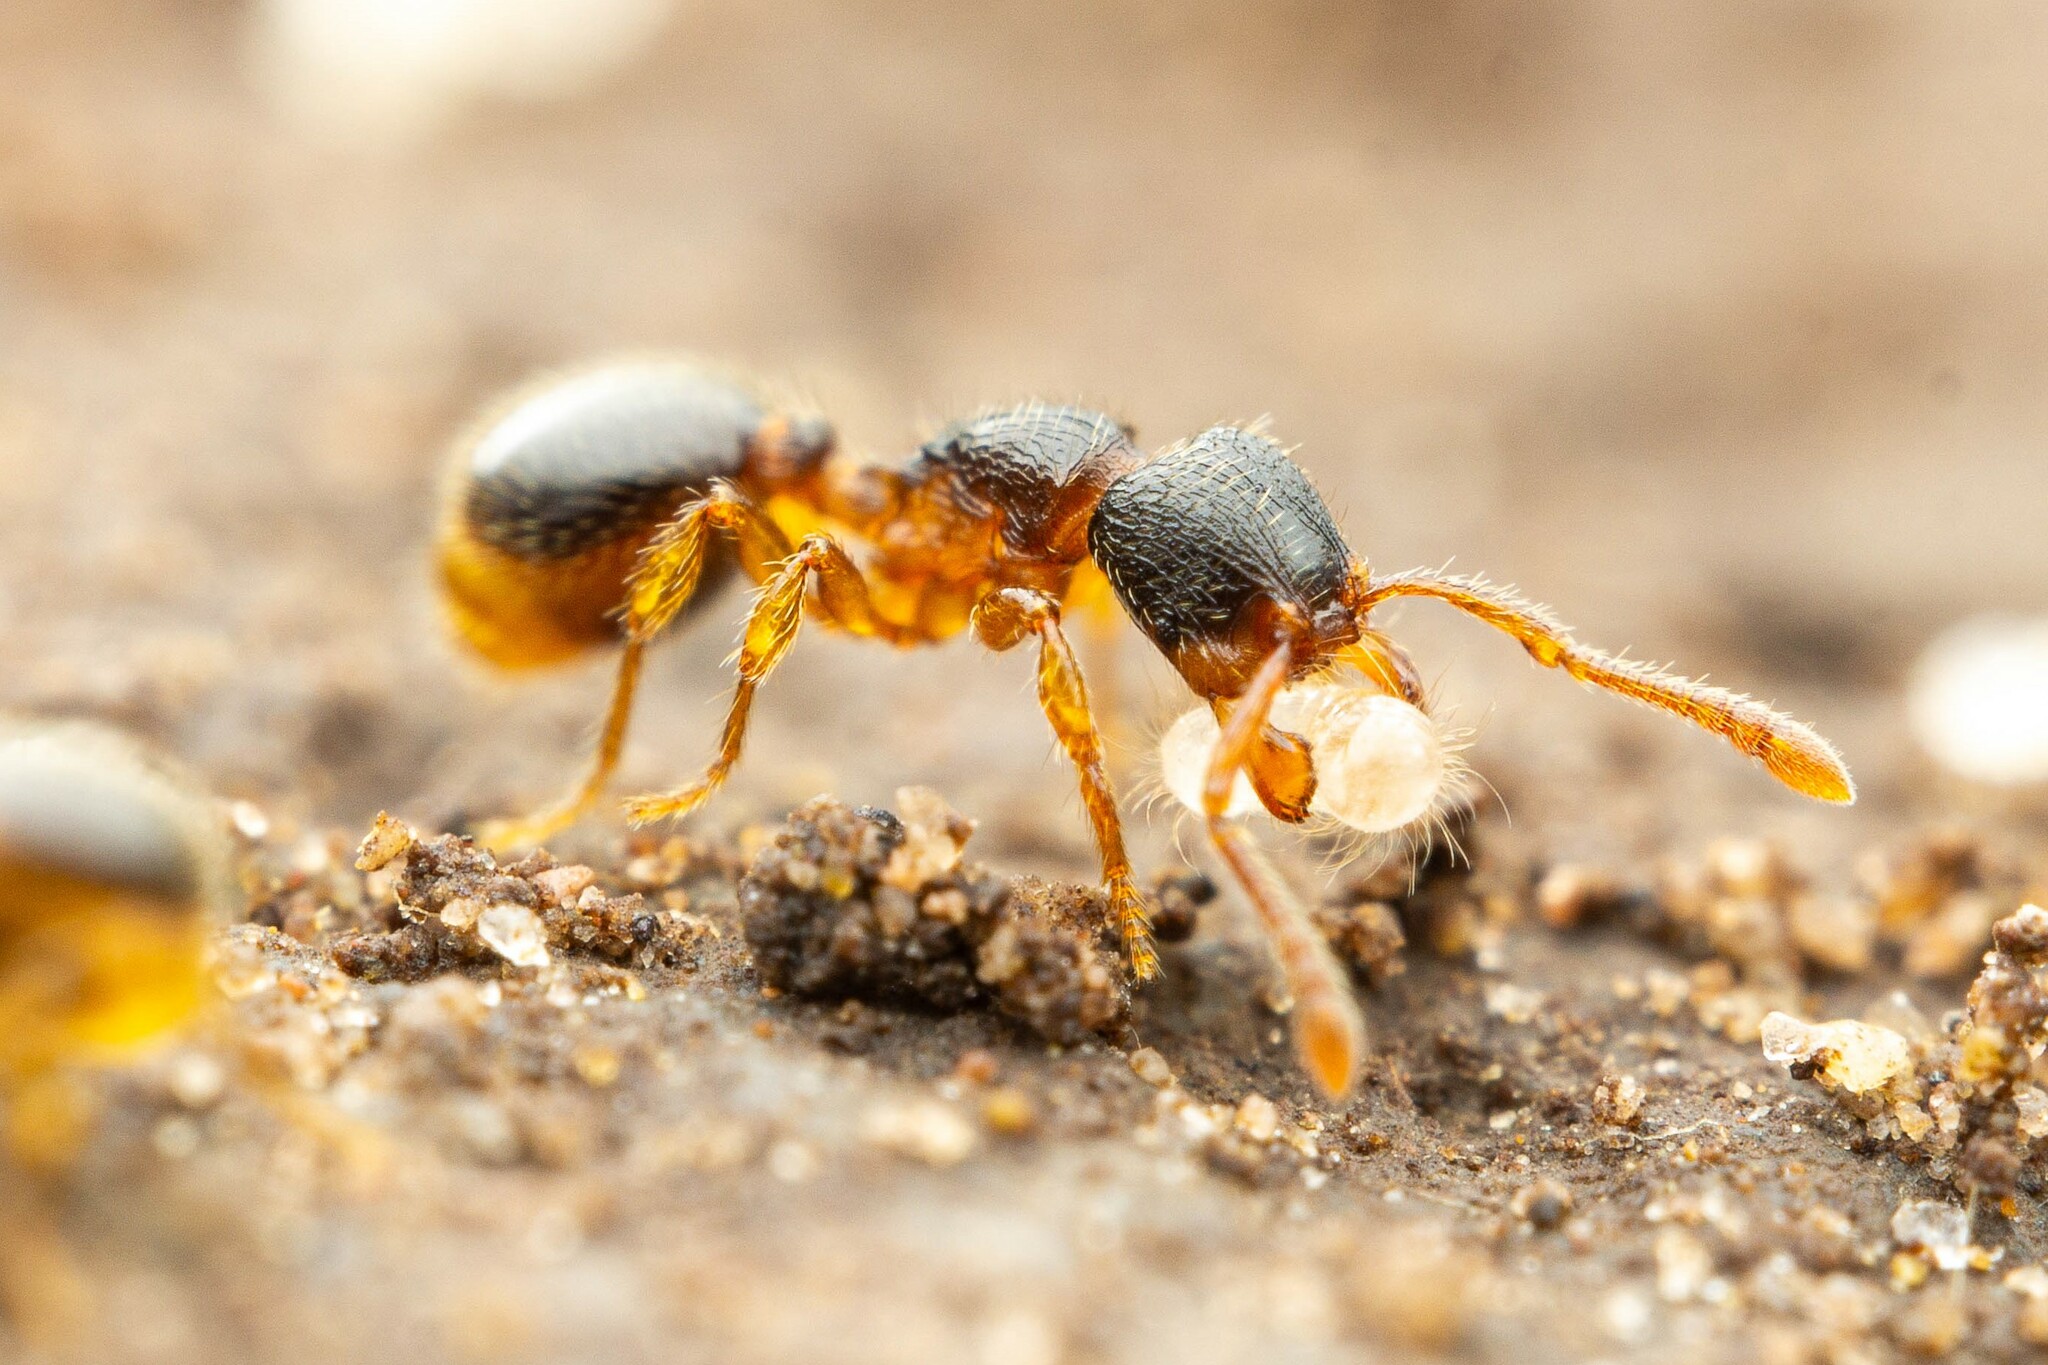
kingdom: Animalia
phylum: Arthropoda
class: Insecta
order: Hymenoptera
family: Formicidae
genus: Myrmecina
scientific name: Myrmecina americana
